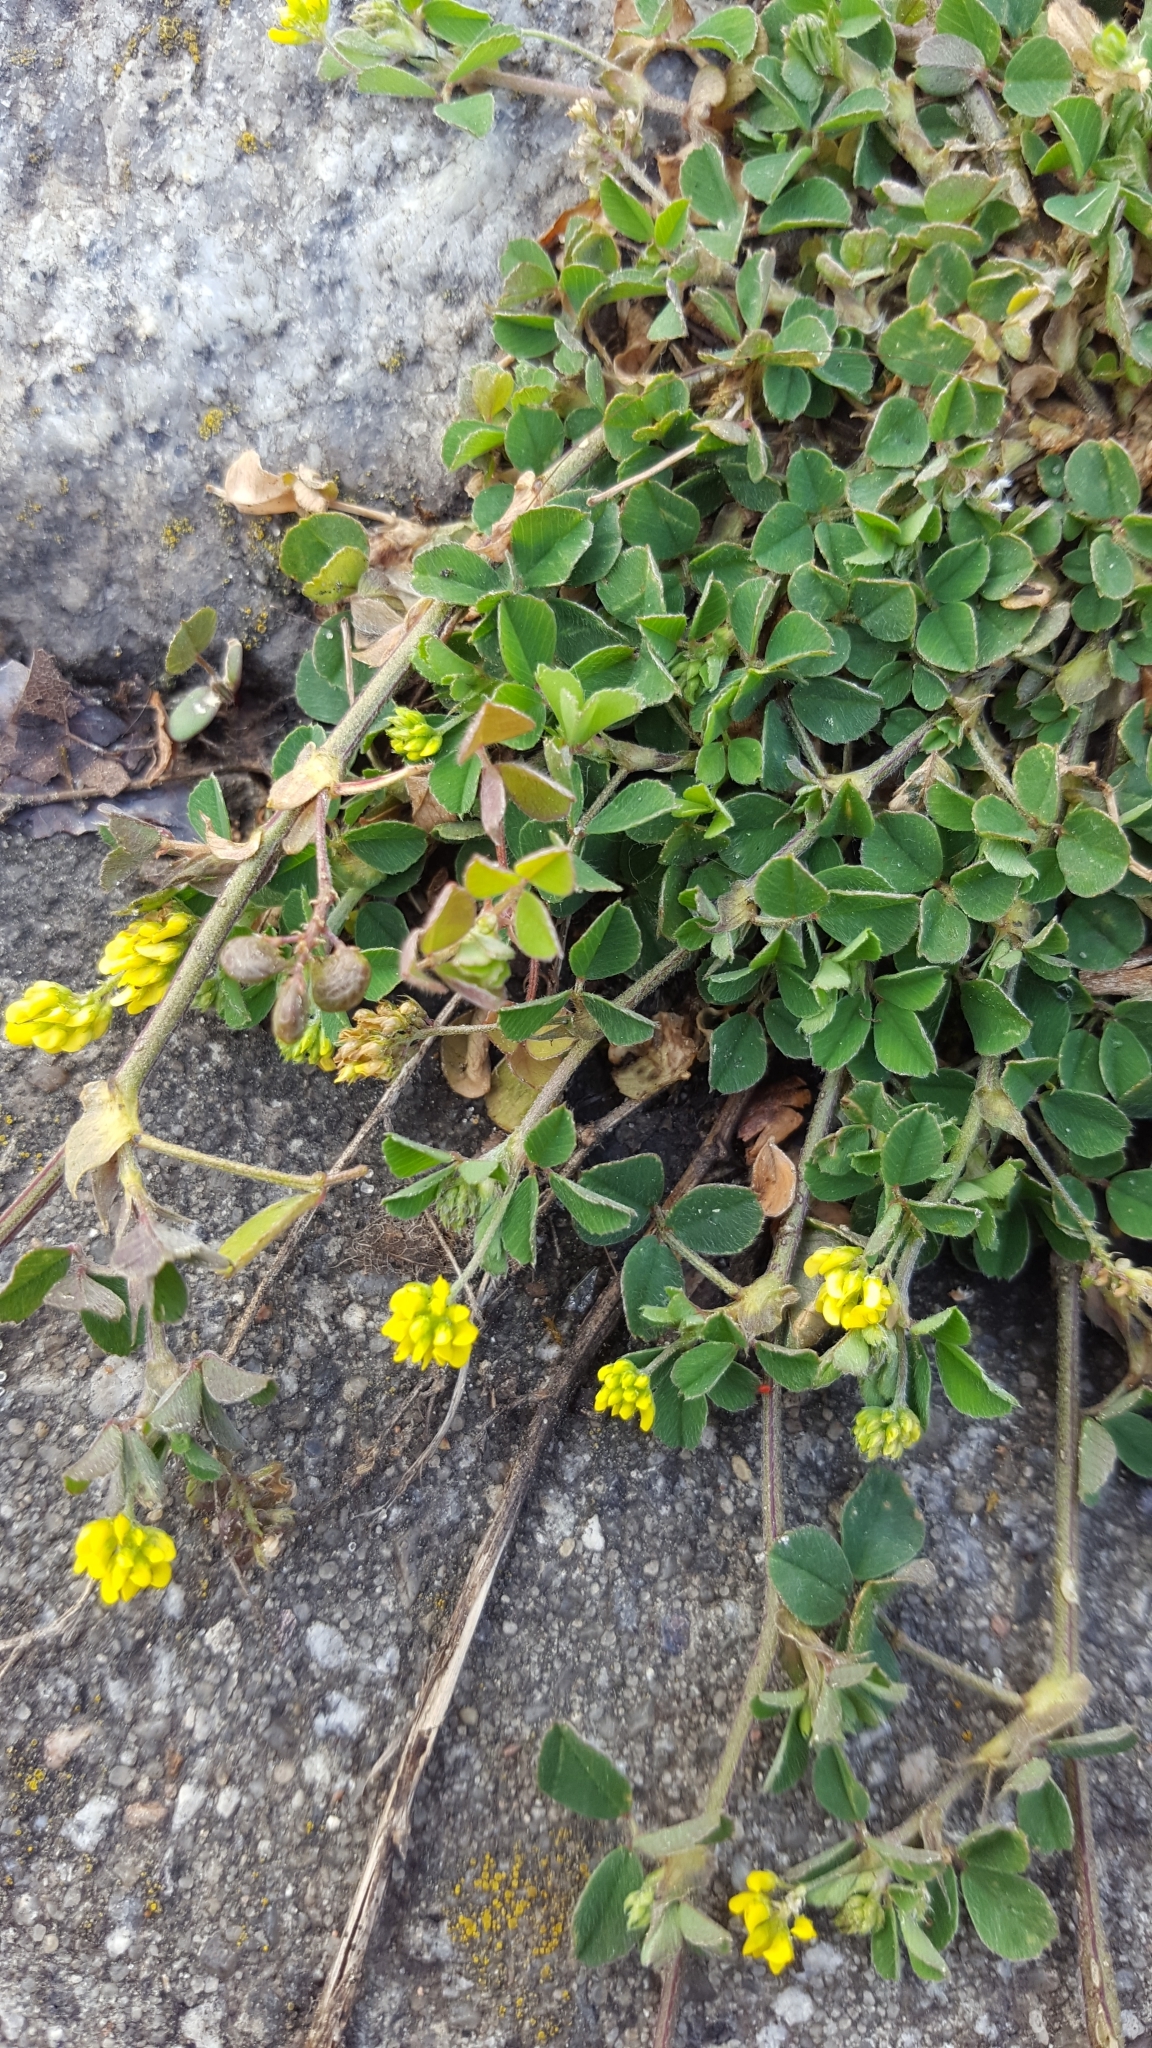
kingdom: Plantae
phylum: Tracheophyta
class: Magnoliopsida
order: Fabales
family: Fabaceae
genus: Medicago
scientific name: Medicago lupulina
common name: Black medick
